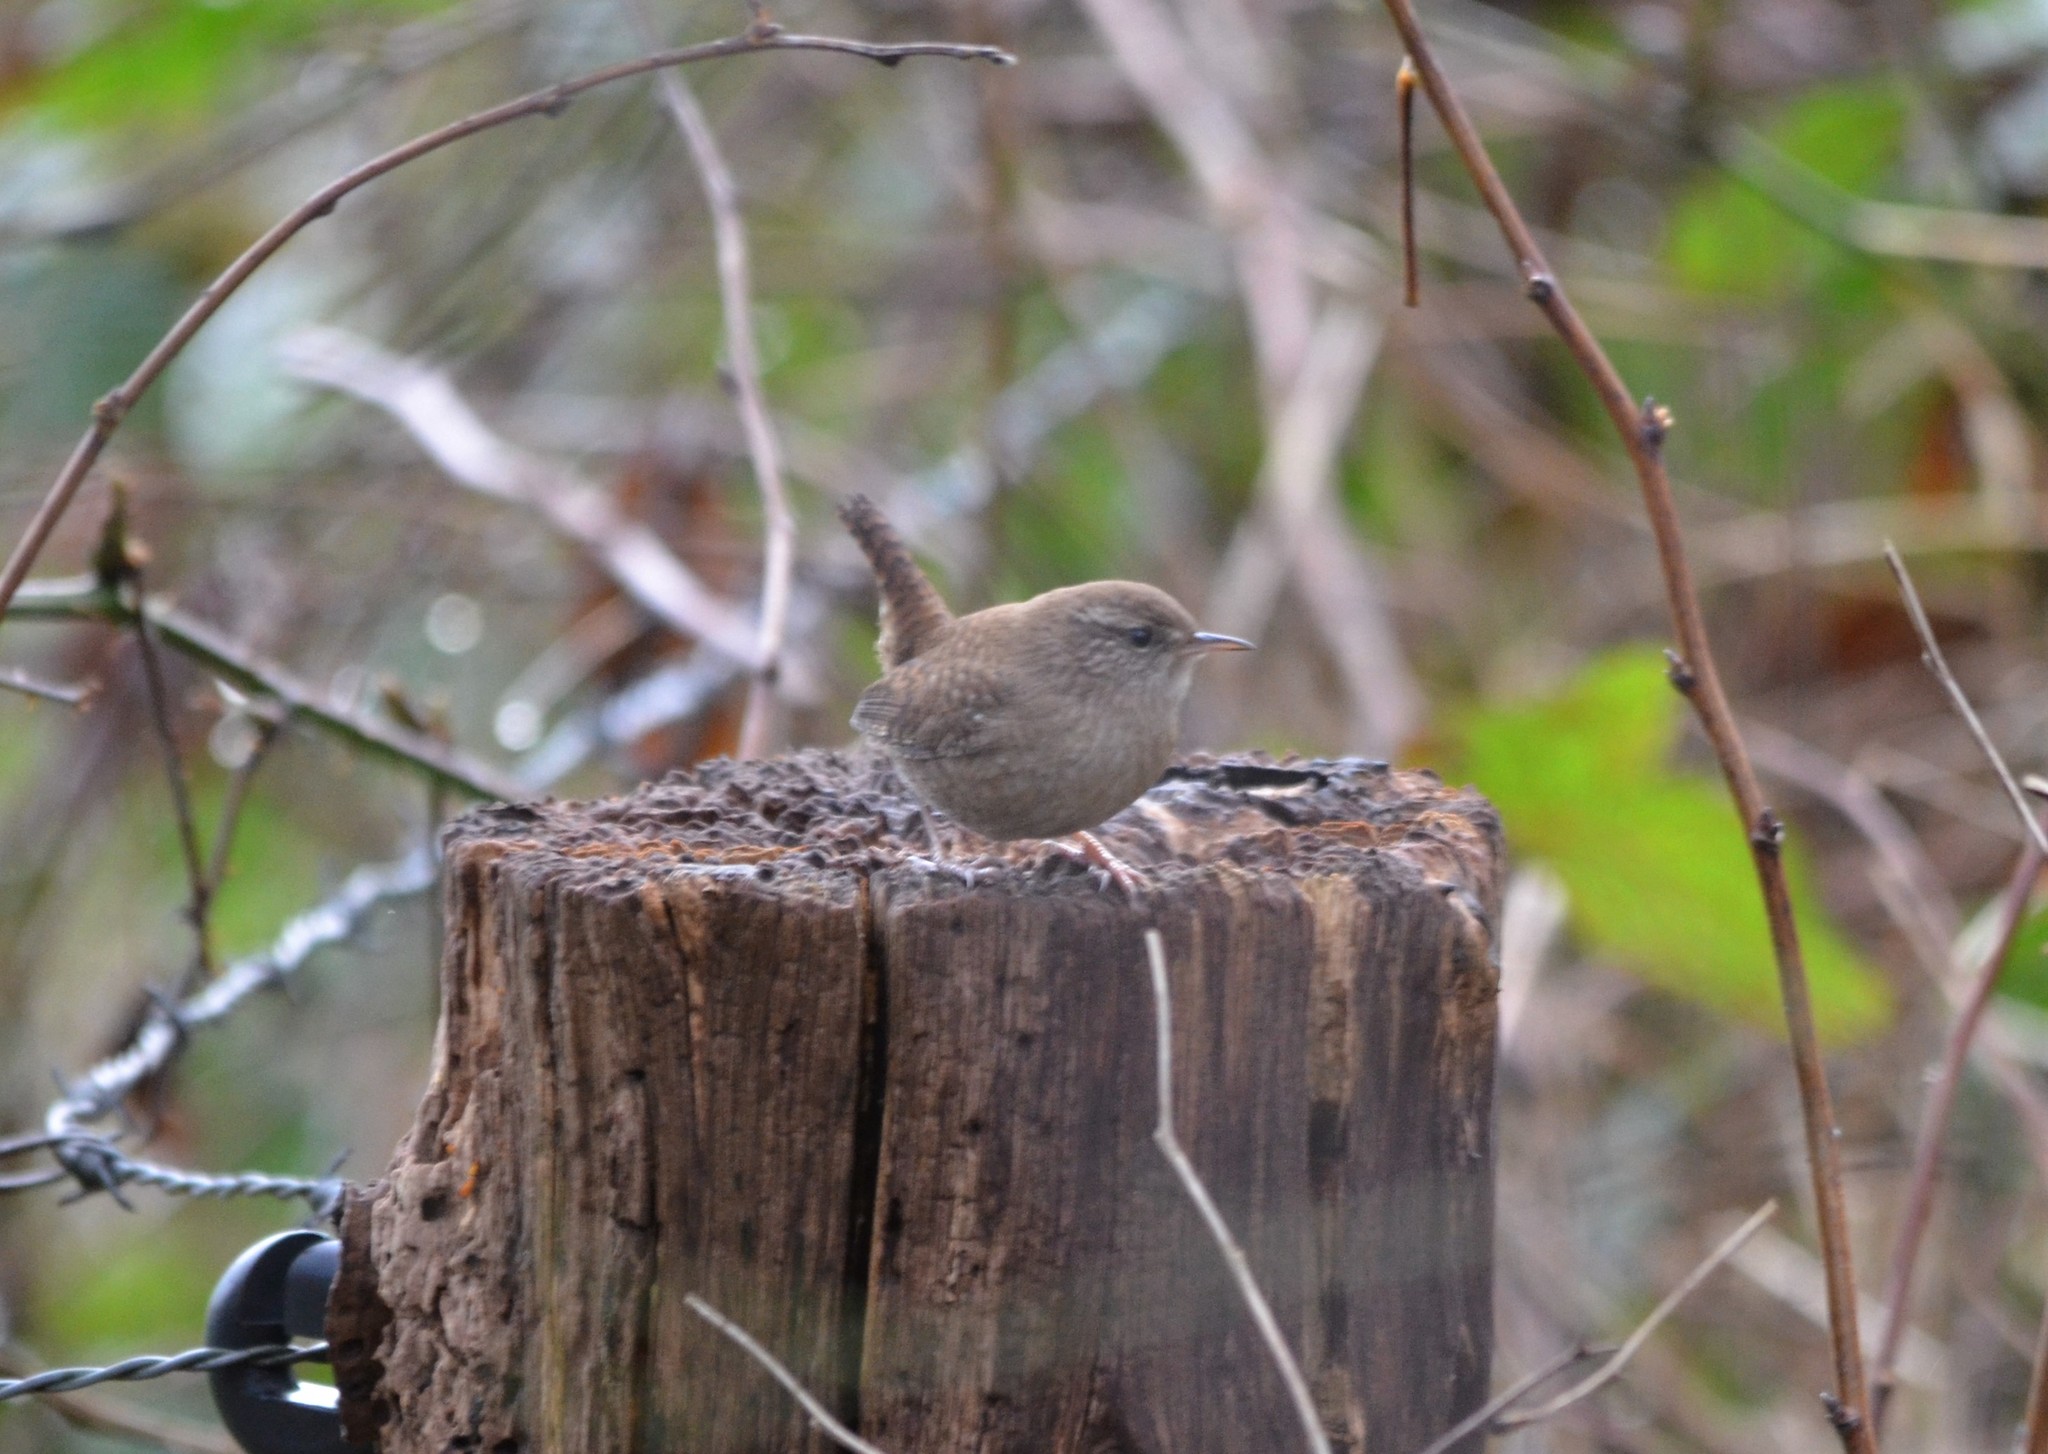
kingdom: Animalia
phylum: Chordata
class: Aves
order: Passeriformes
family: Troglodytidae
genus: Troglodytes
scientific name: Troglodytes troglodytes
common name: Eurasian wren
